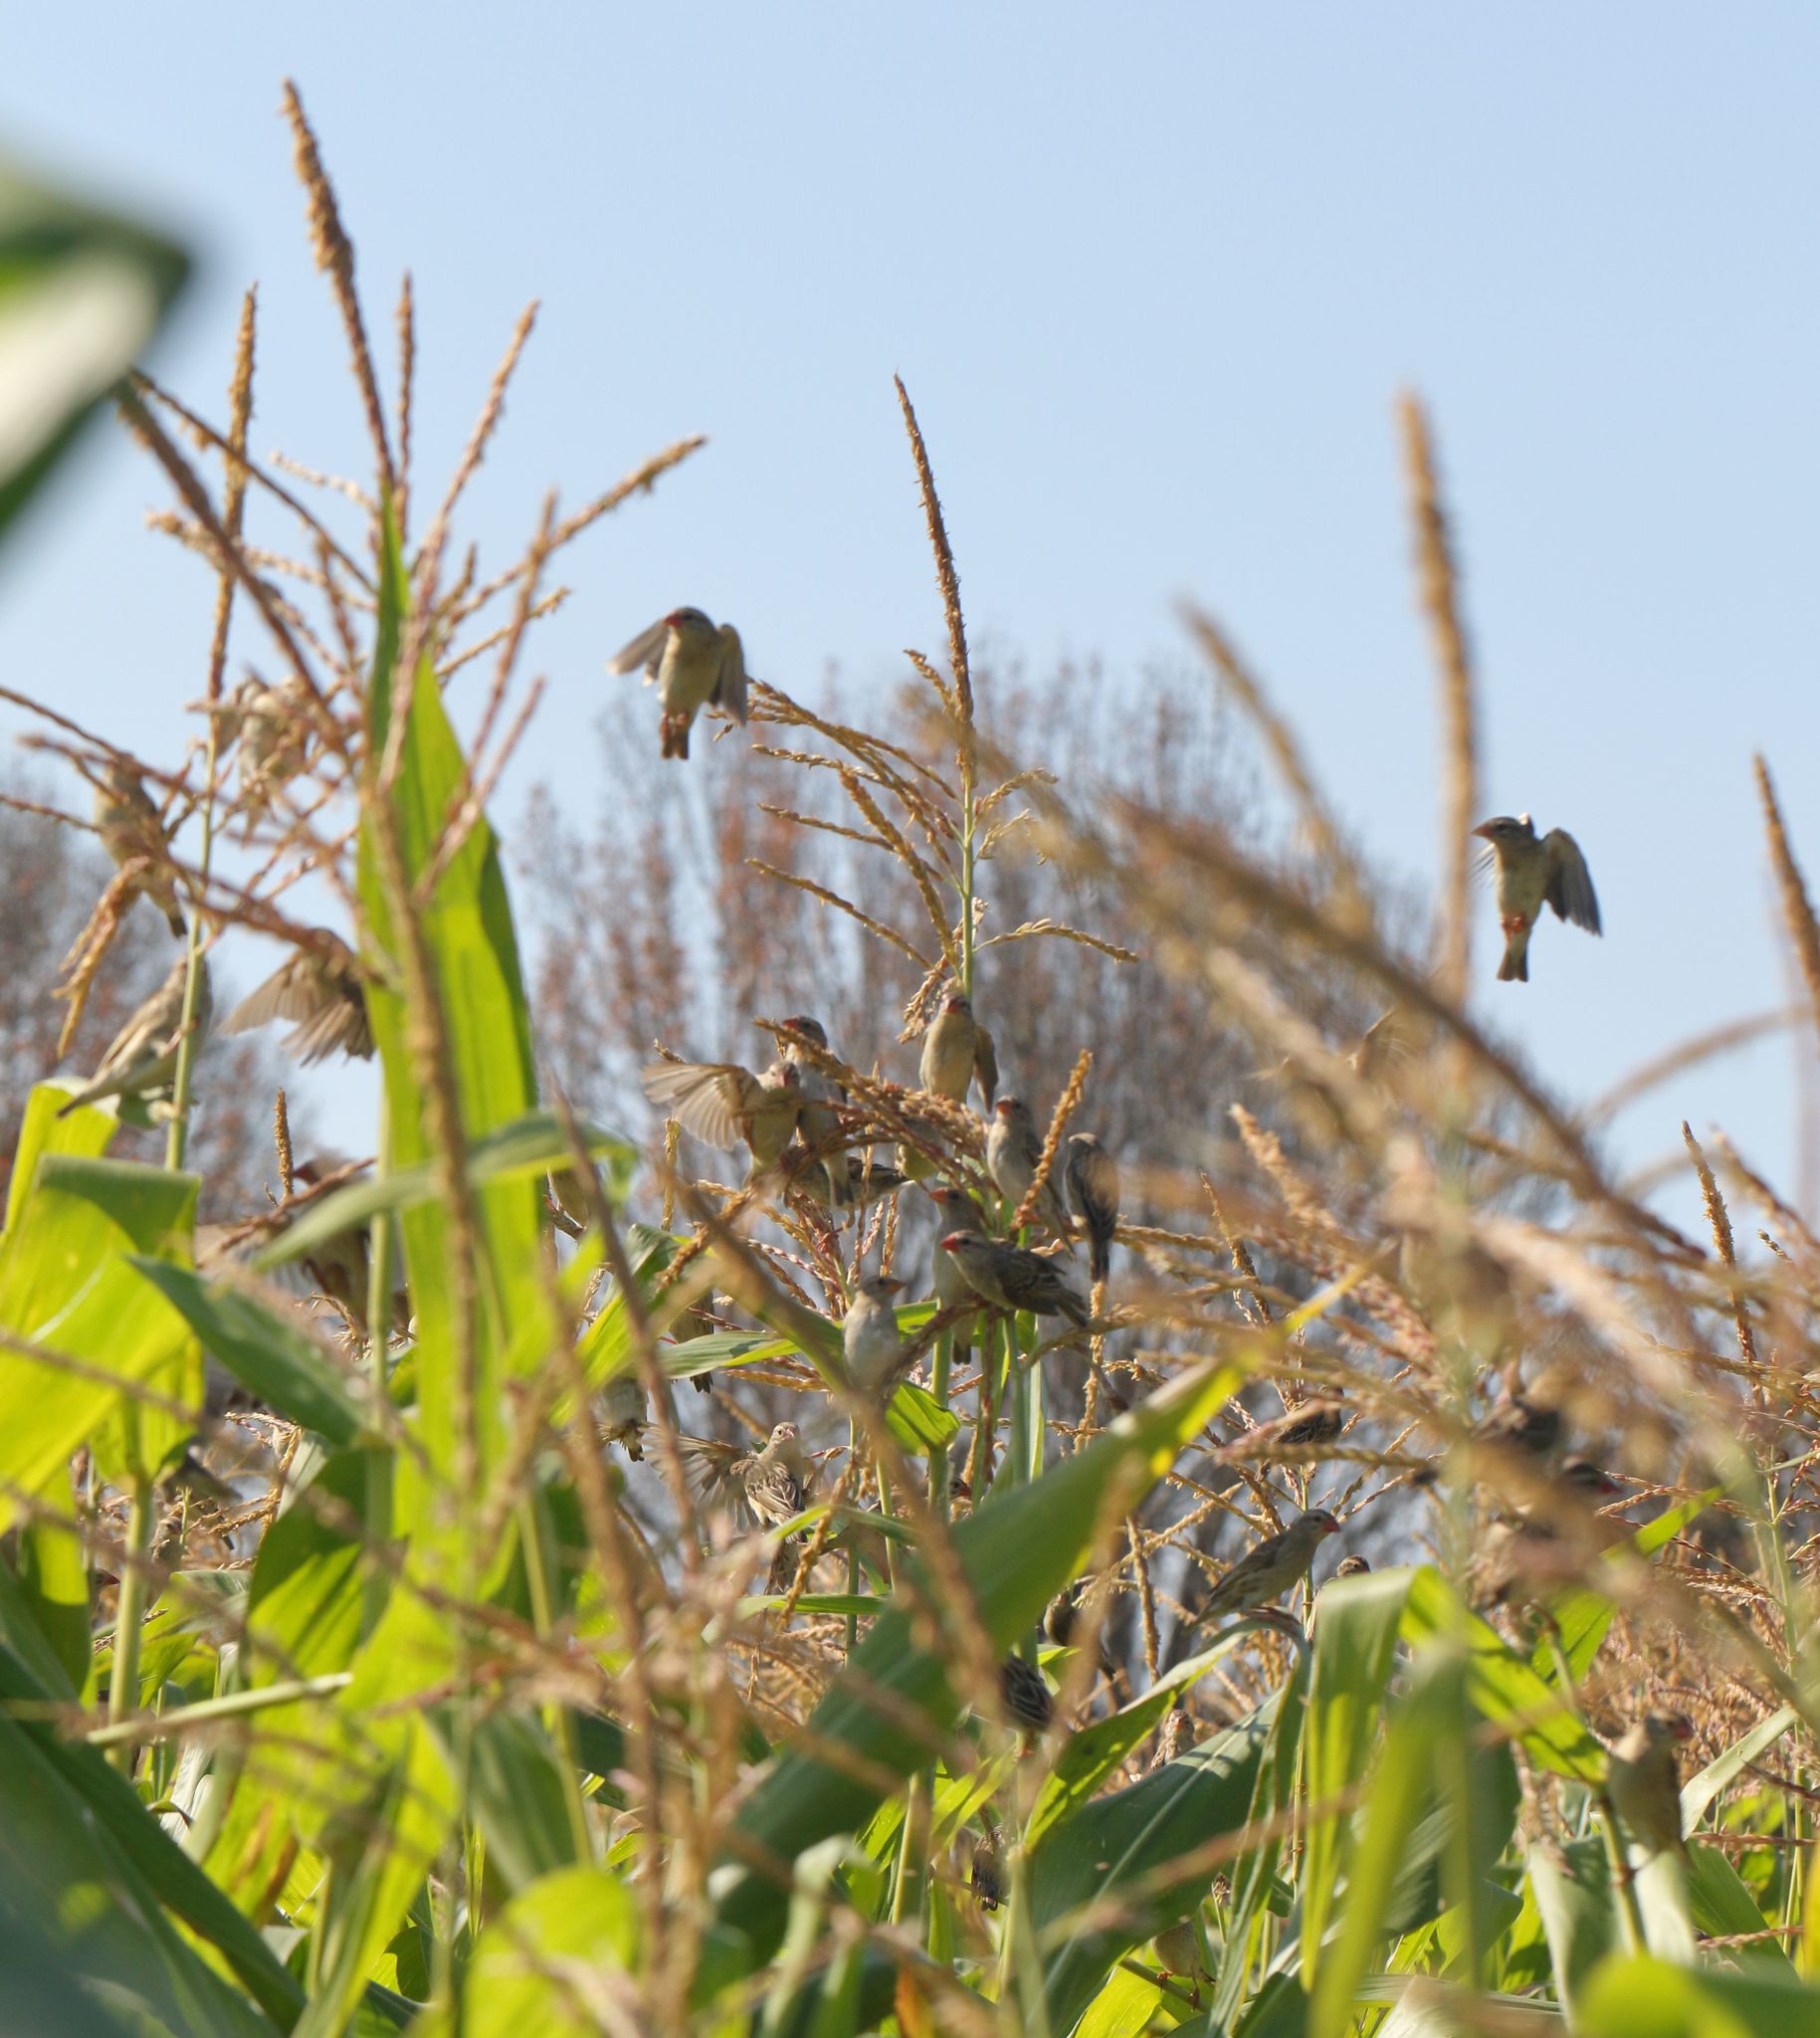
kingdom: Animalia
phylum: Chordata
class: Aves
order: Passeriformes
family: Ploceidae
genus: Quelea
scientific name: Quelea quelea
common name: Red-billed quelea
